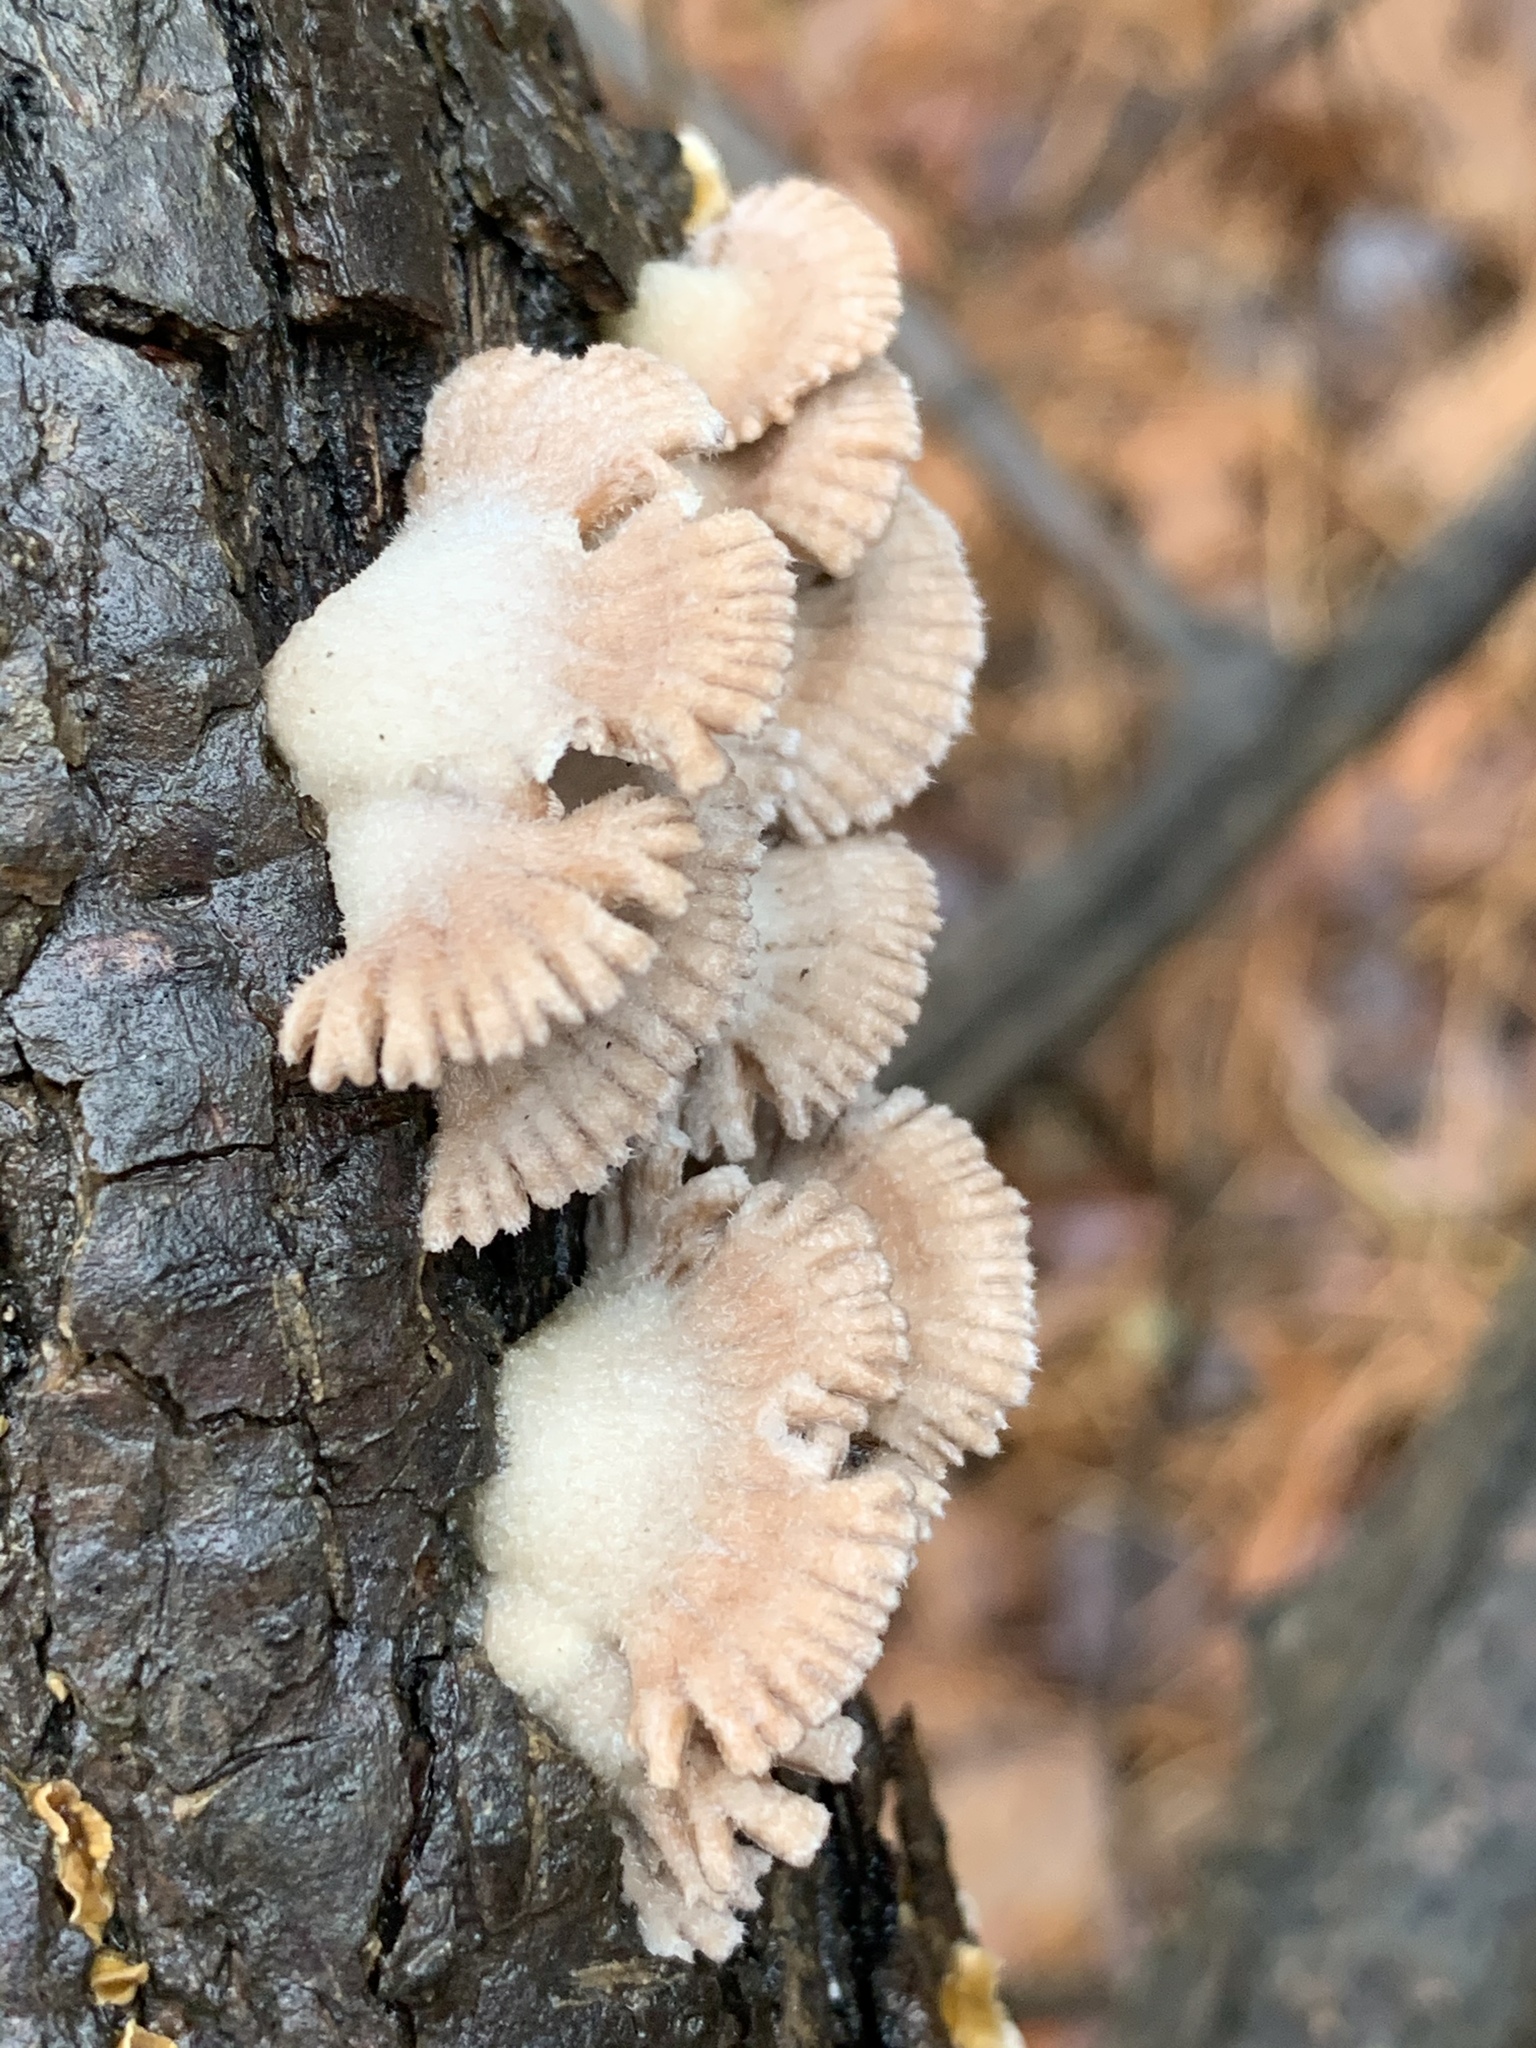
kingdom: Fungi
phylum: Basidiomycota
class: Agaricomycetes
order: Agaricales
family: Schizophyllaceae
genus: Schizophyllum
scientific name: Schizophyllum commune
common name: Common porecrust
